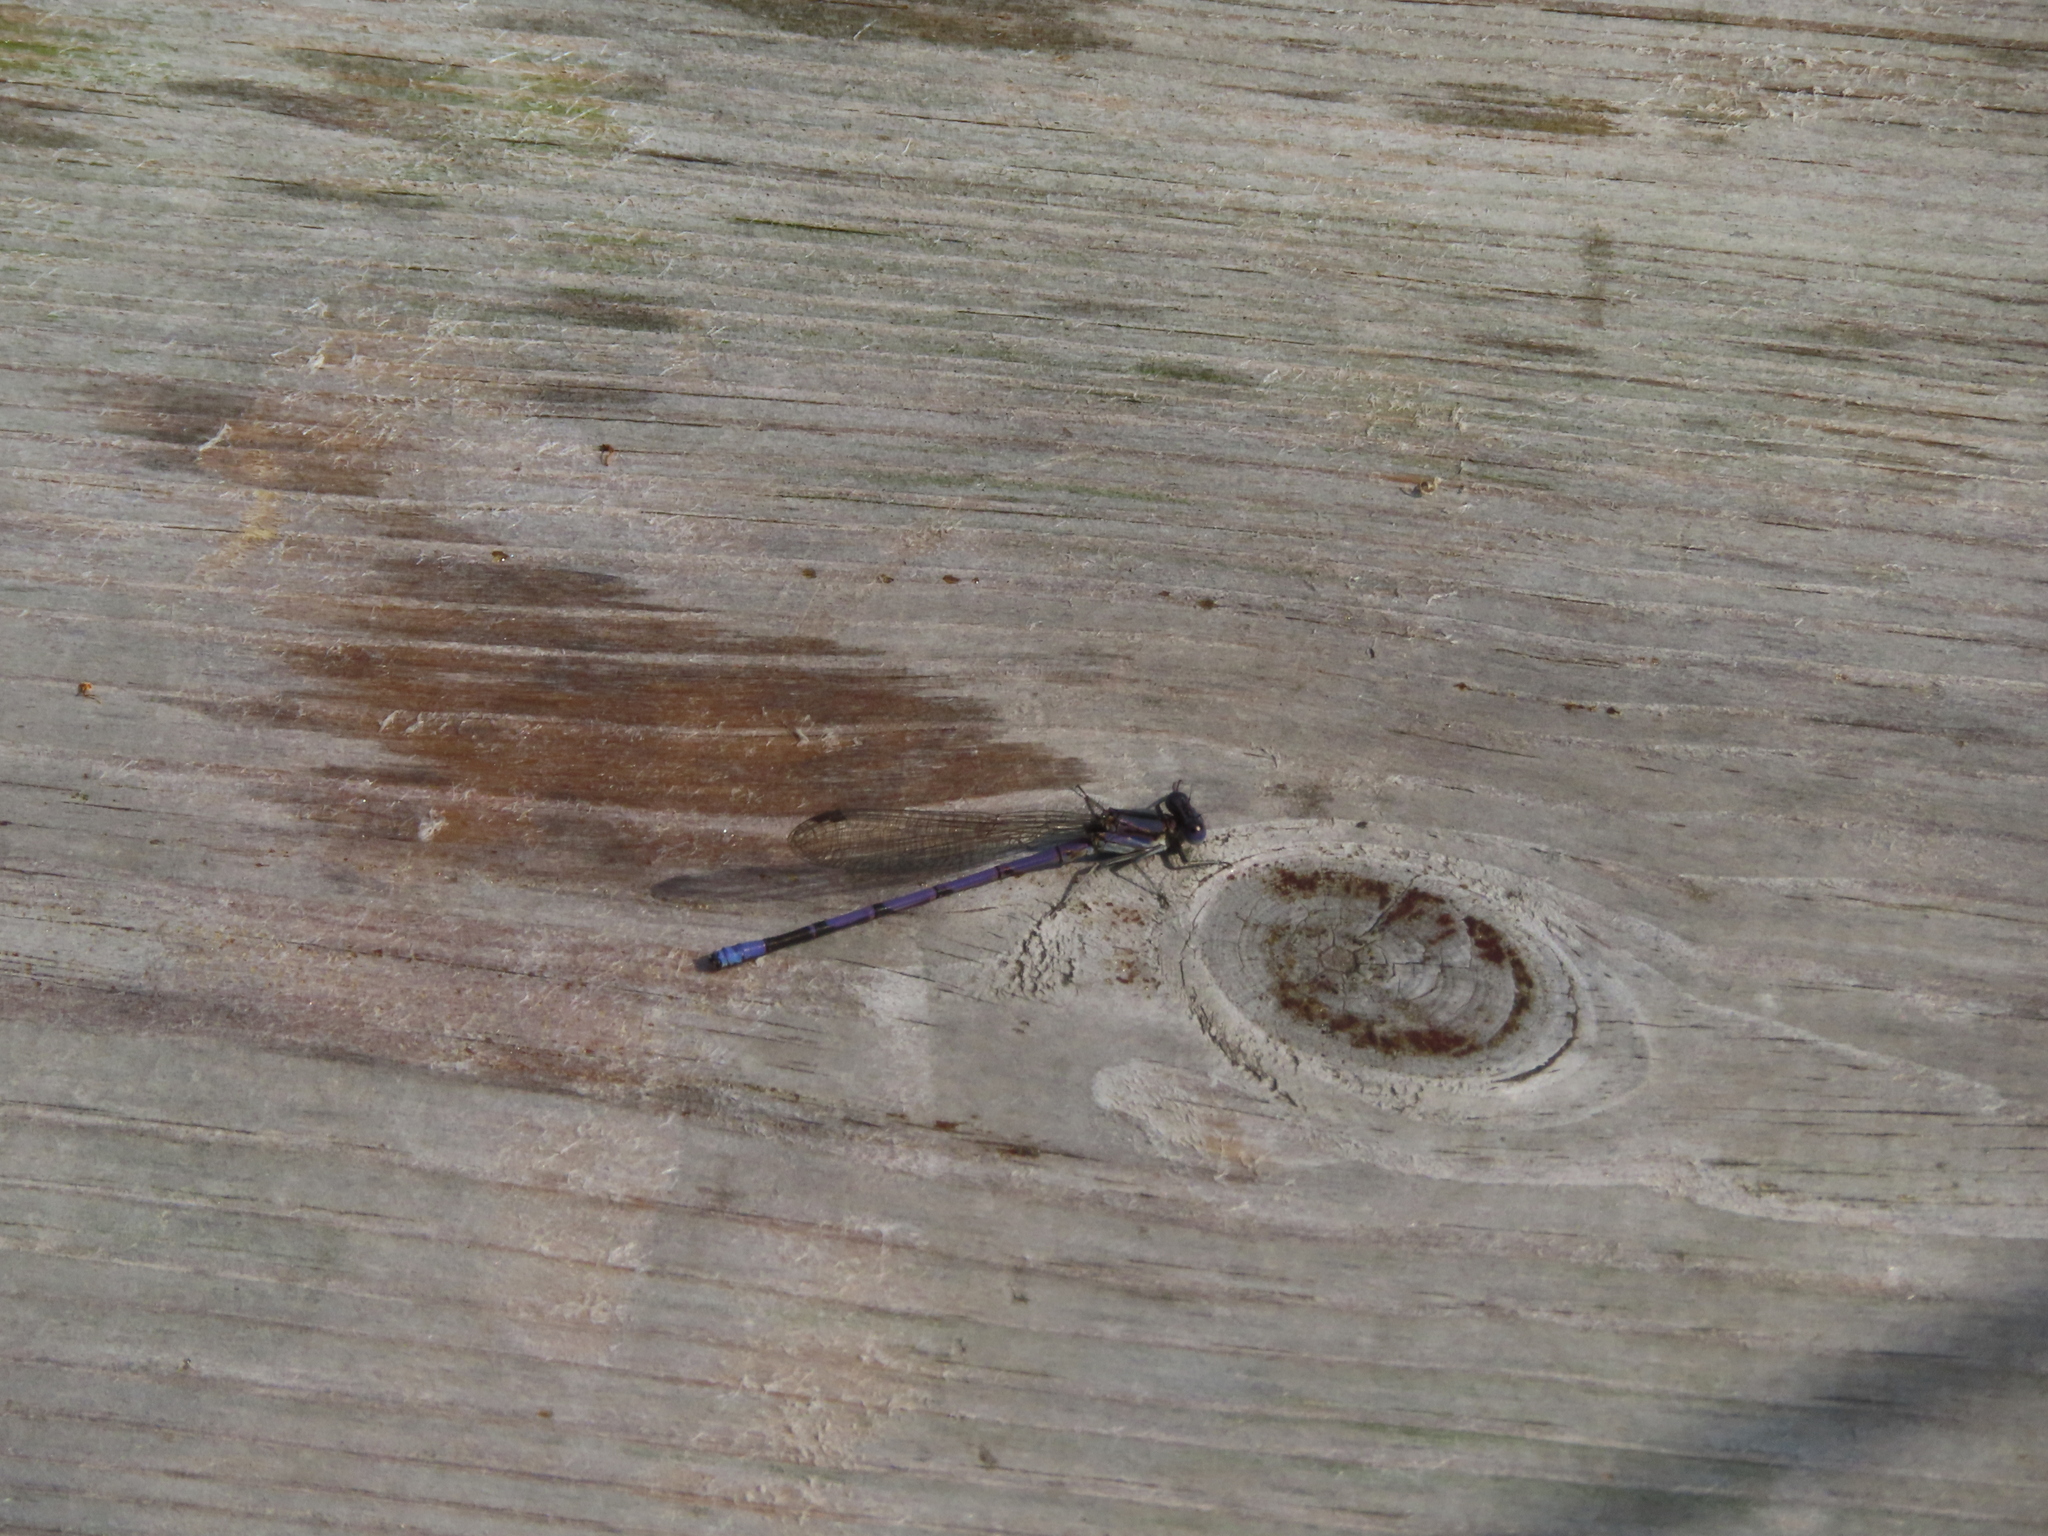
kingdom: Animalia
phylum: Arthropoda
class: Insecta
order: Odonata
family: Coenagrionidae
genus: Argia
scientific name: Argia fumipennis
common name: Variable dancer
